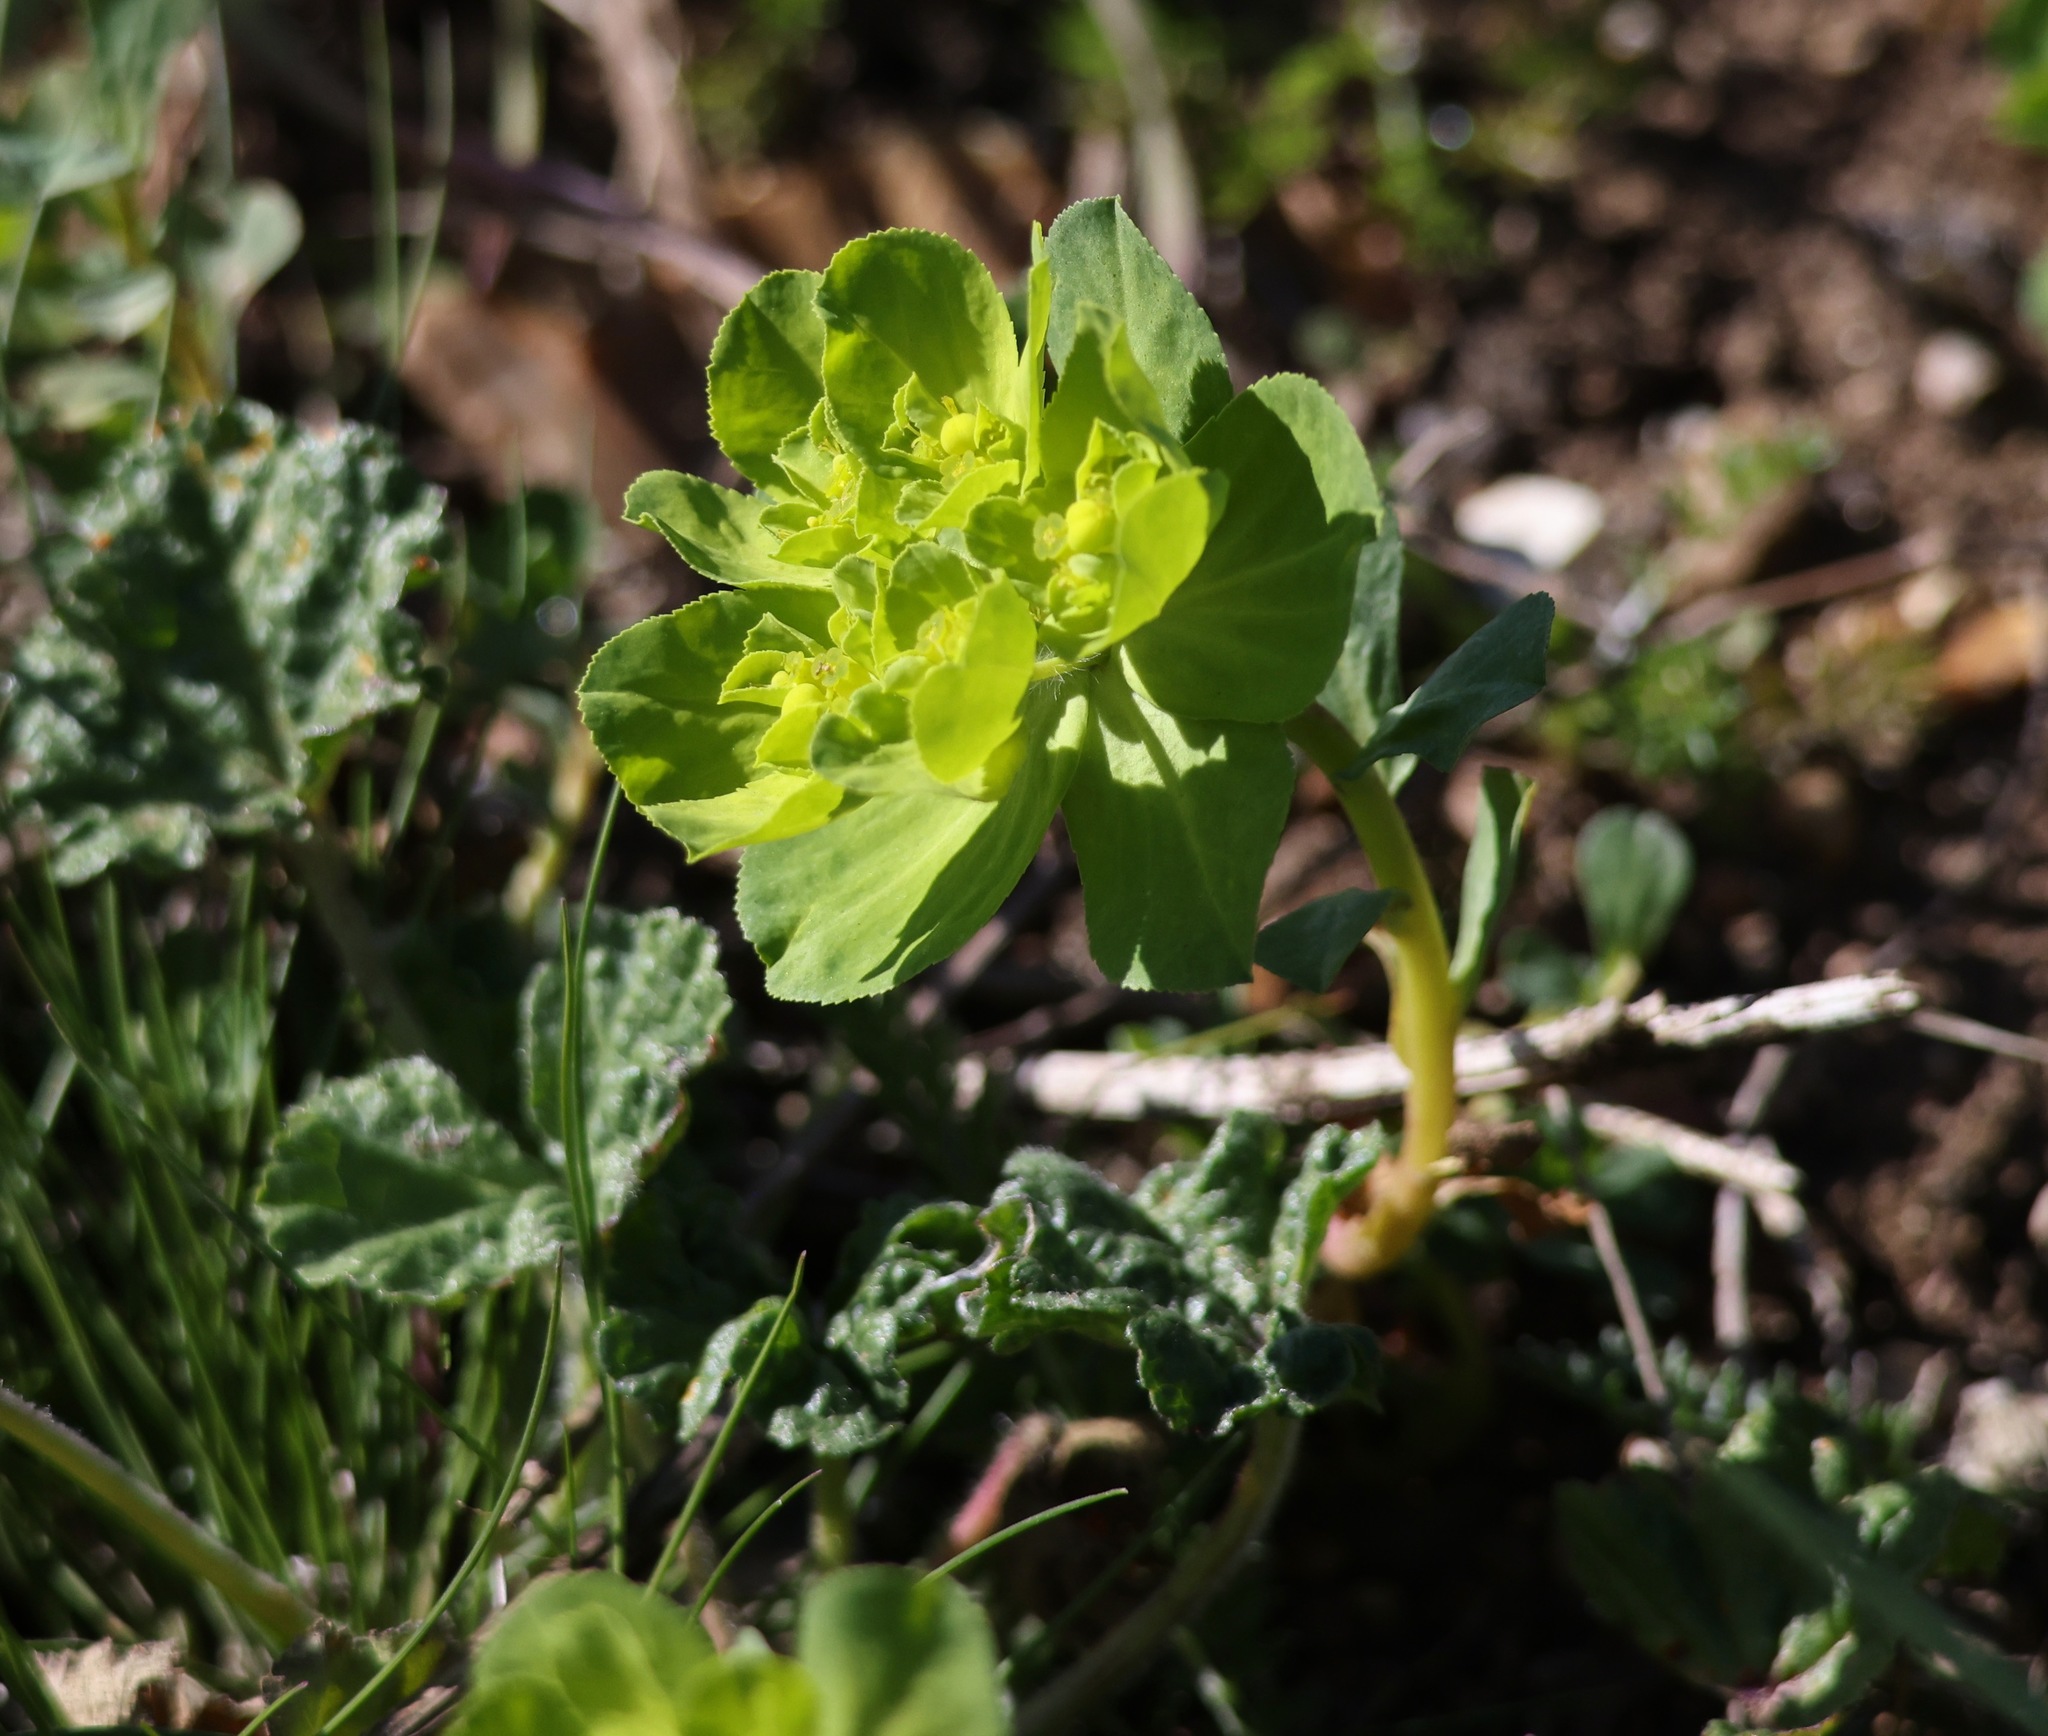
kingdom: Plantae
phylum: Tracheophyta
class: Magnoliopsida
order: Malpighiales
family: Euphorbiaceae
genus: Euphorbia
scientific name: Euphorbia helioscopia
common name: Sun spurge
